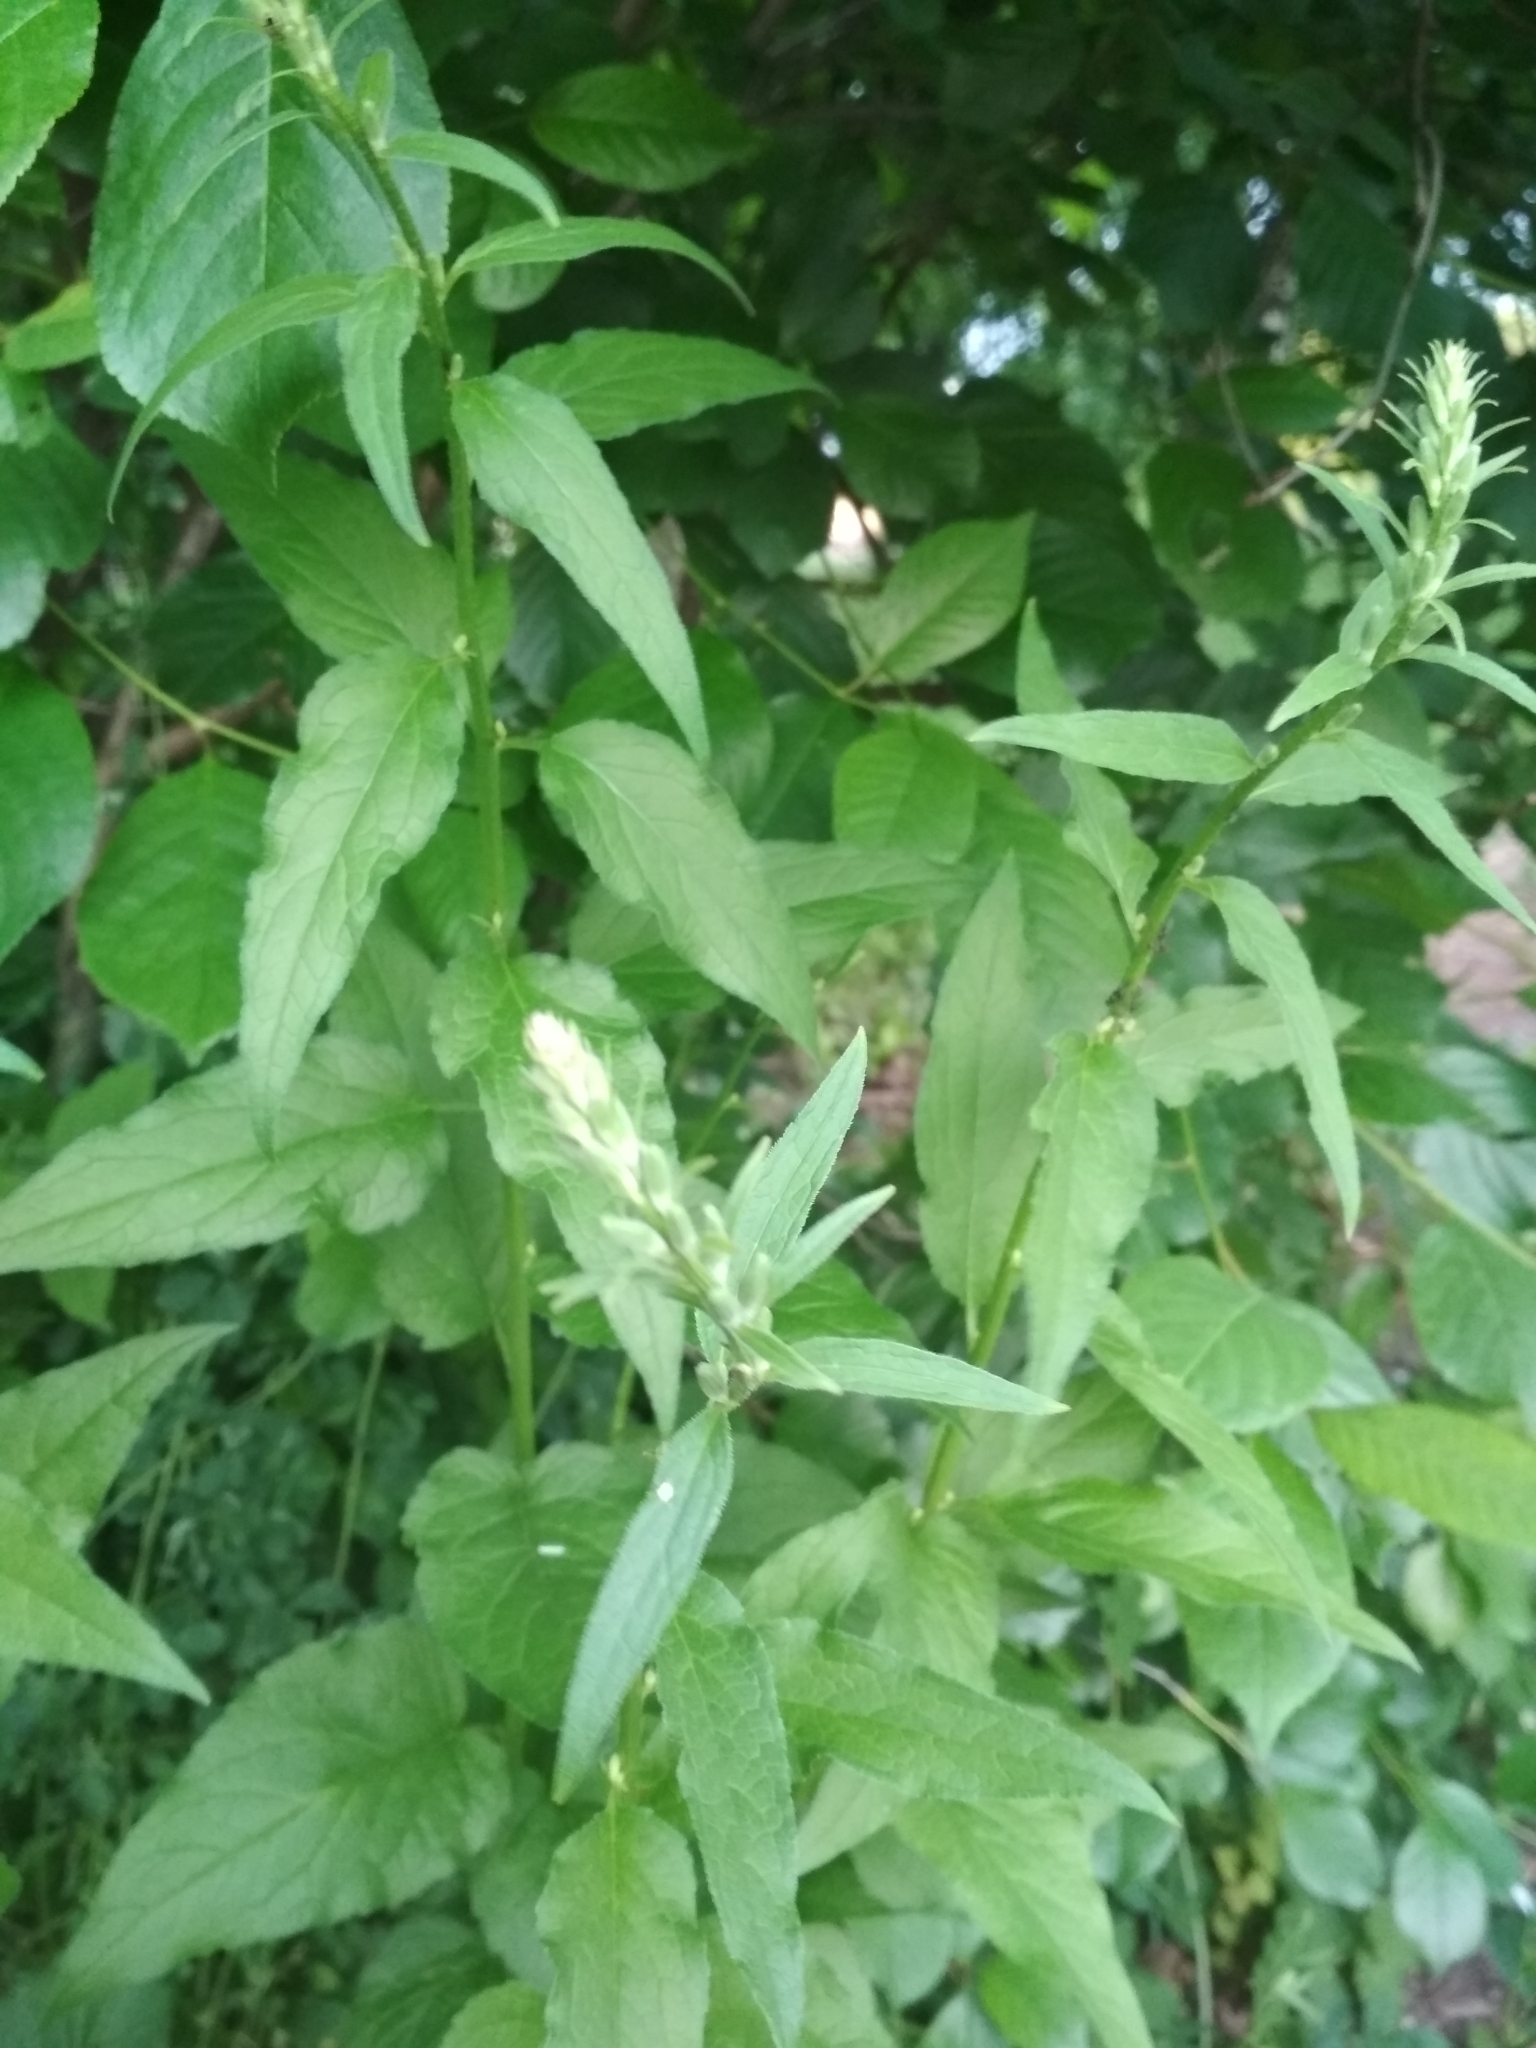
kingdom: Plantae
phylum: Tracheophyta
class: Magnoliopsida
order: Asterales
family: Campanulaceae
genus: Campanula
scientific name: Campanula rapunculoides
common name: Creeping bellflower
